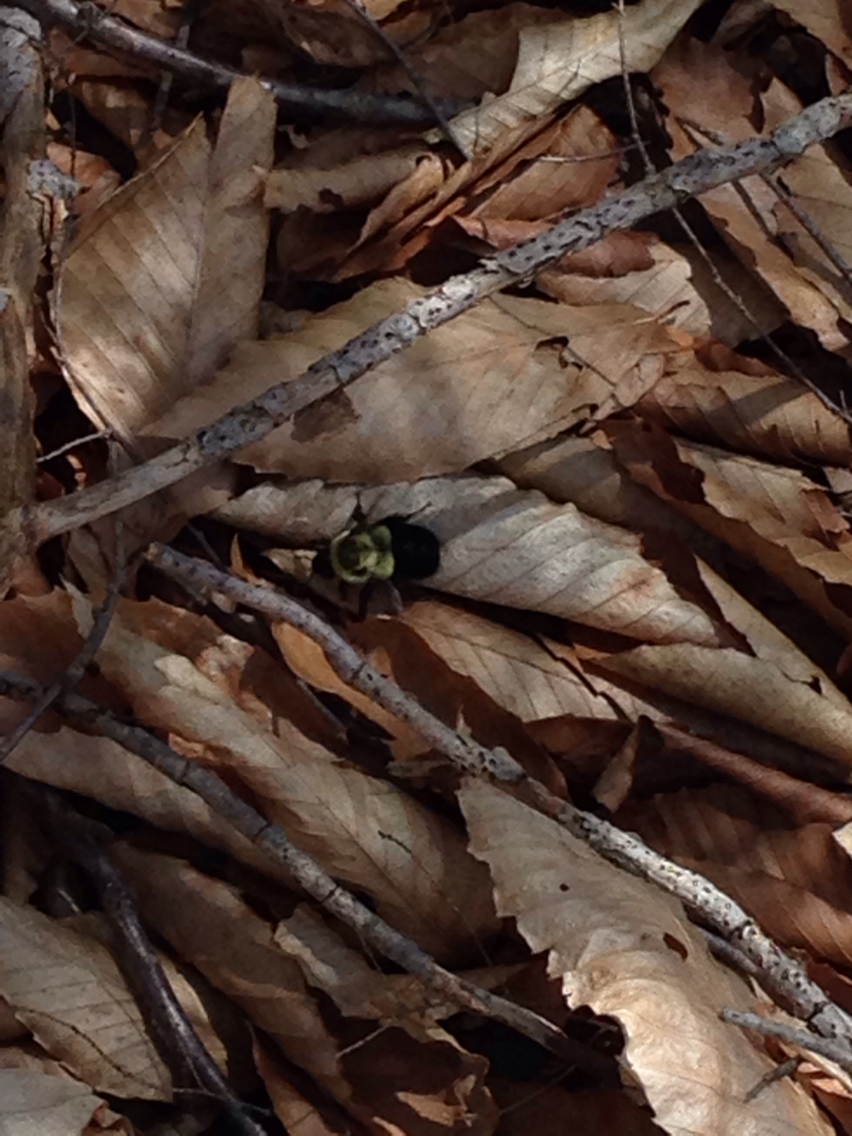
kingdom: Animalia
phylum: Arthropoda
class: Insecta
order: Hymenoptera
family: Apidae
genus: Bombus
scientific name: Bombus impatiens
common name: Common eastern bumble bee
